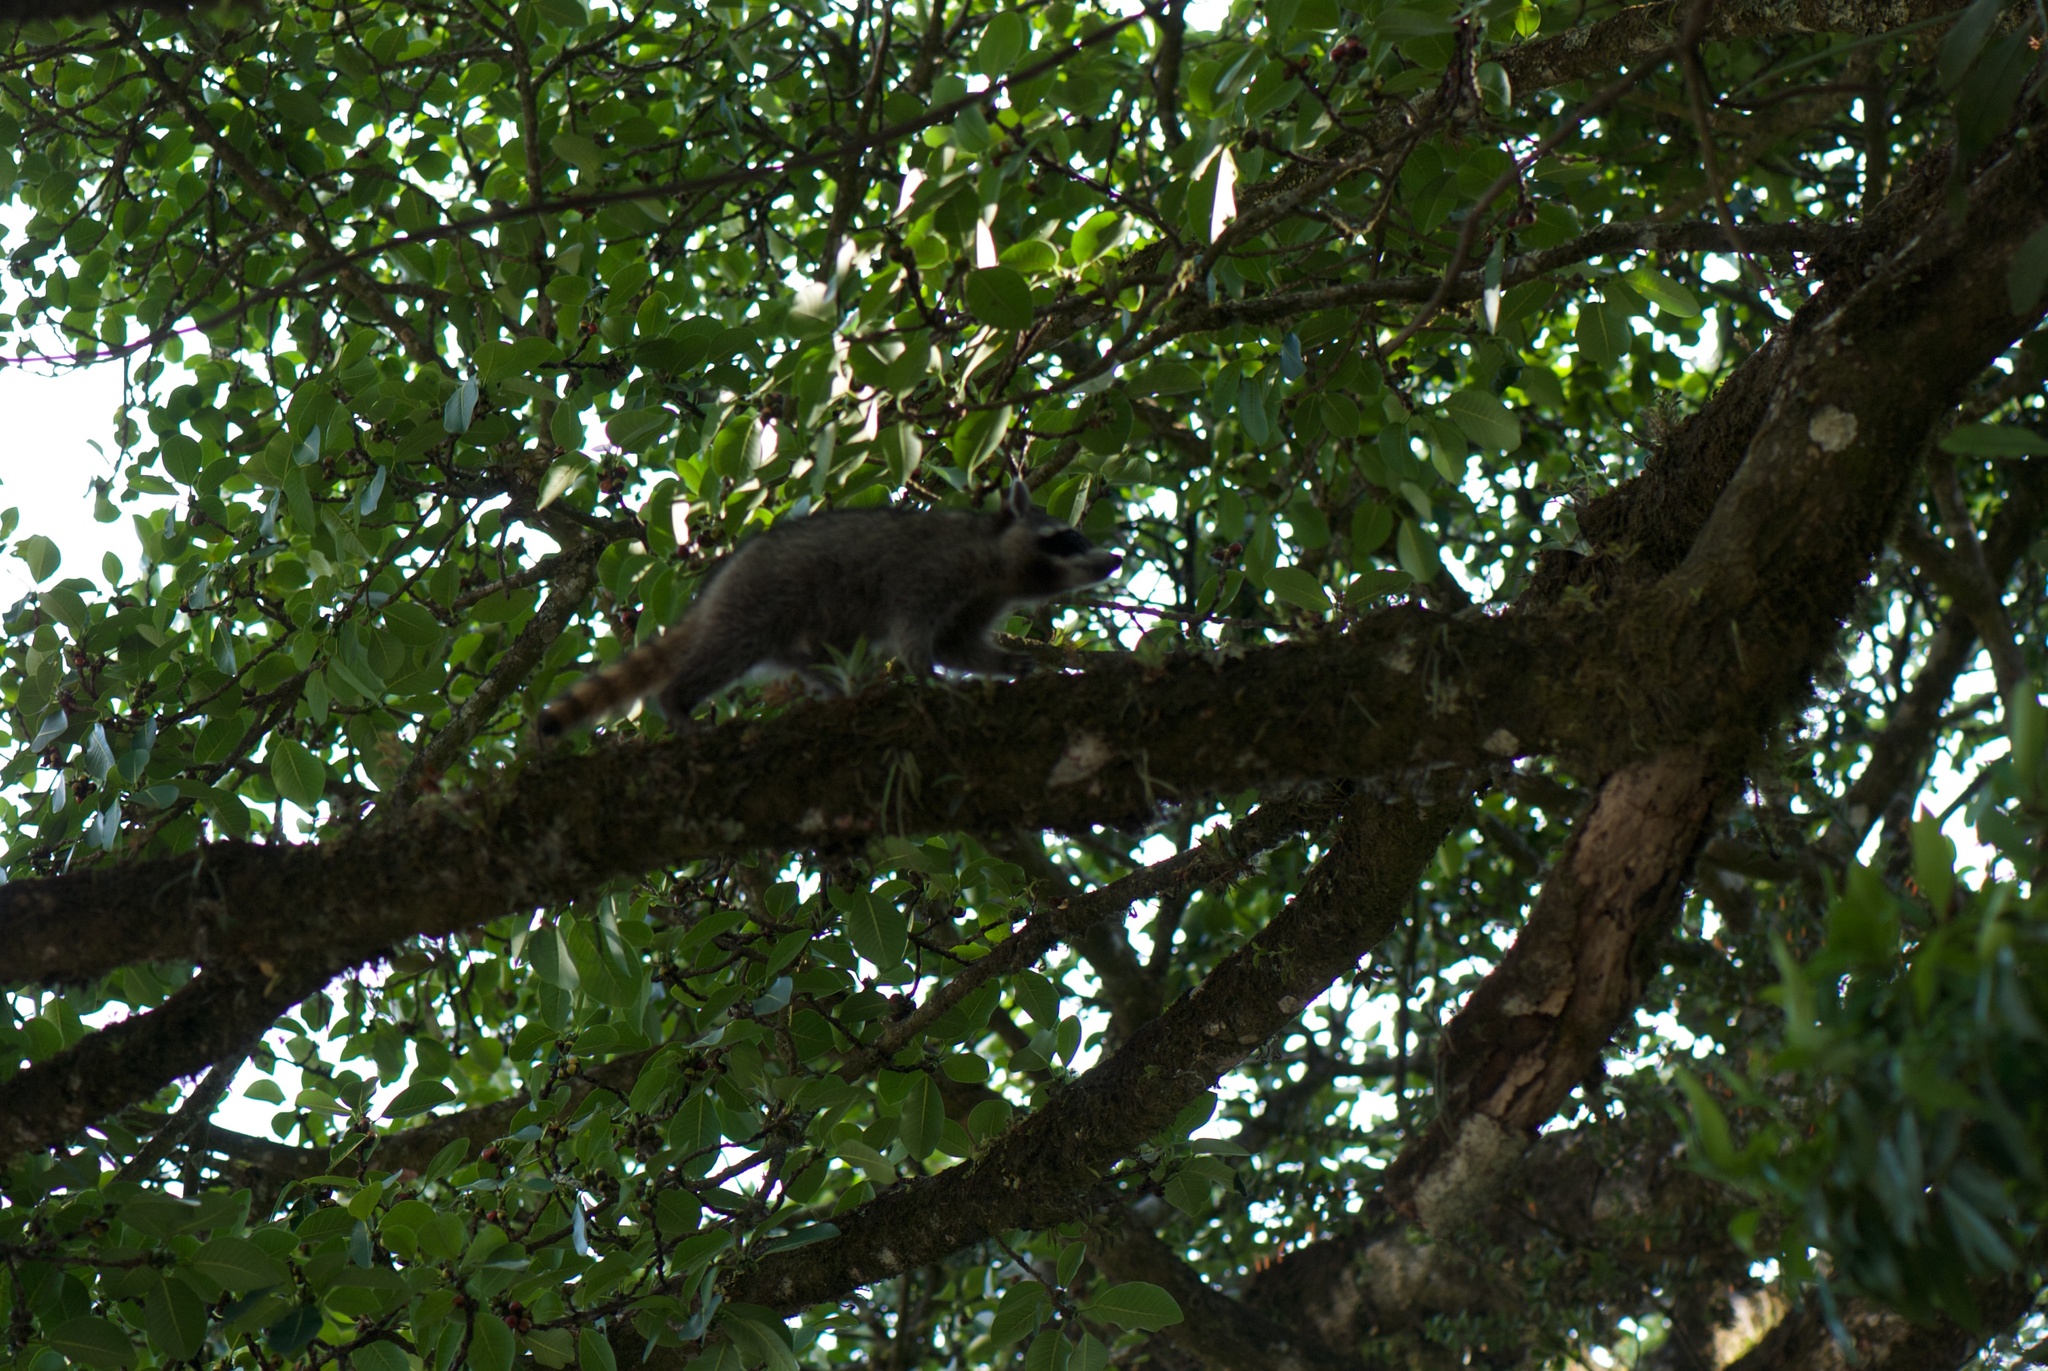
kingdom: Animalia
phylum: Chordata
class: Mammalia
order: Carnivora
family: Procyonidae
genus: Procyon
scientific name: Procyon lotor
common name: Raccoon
